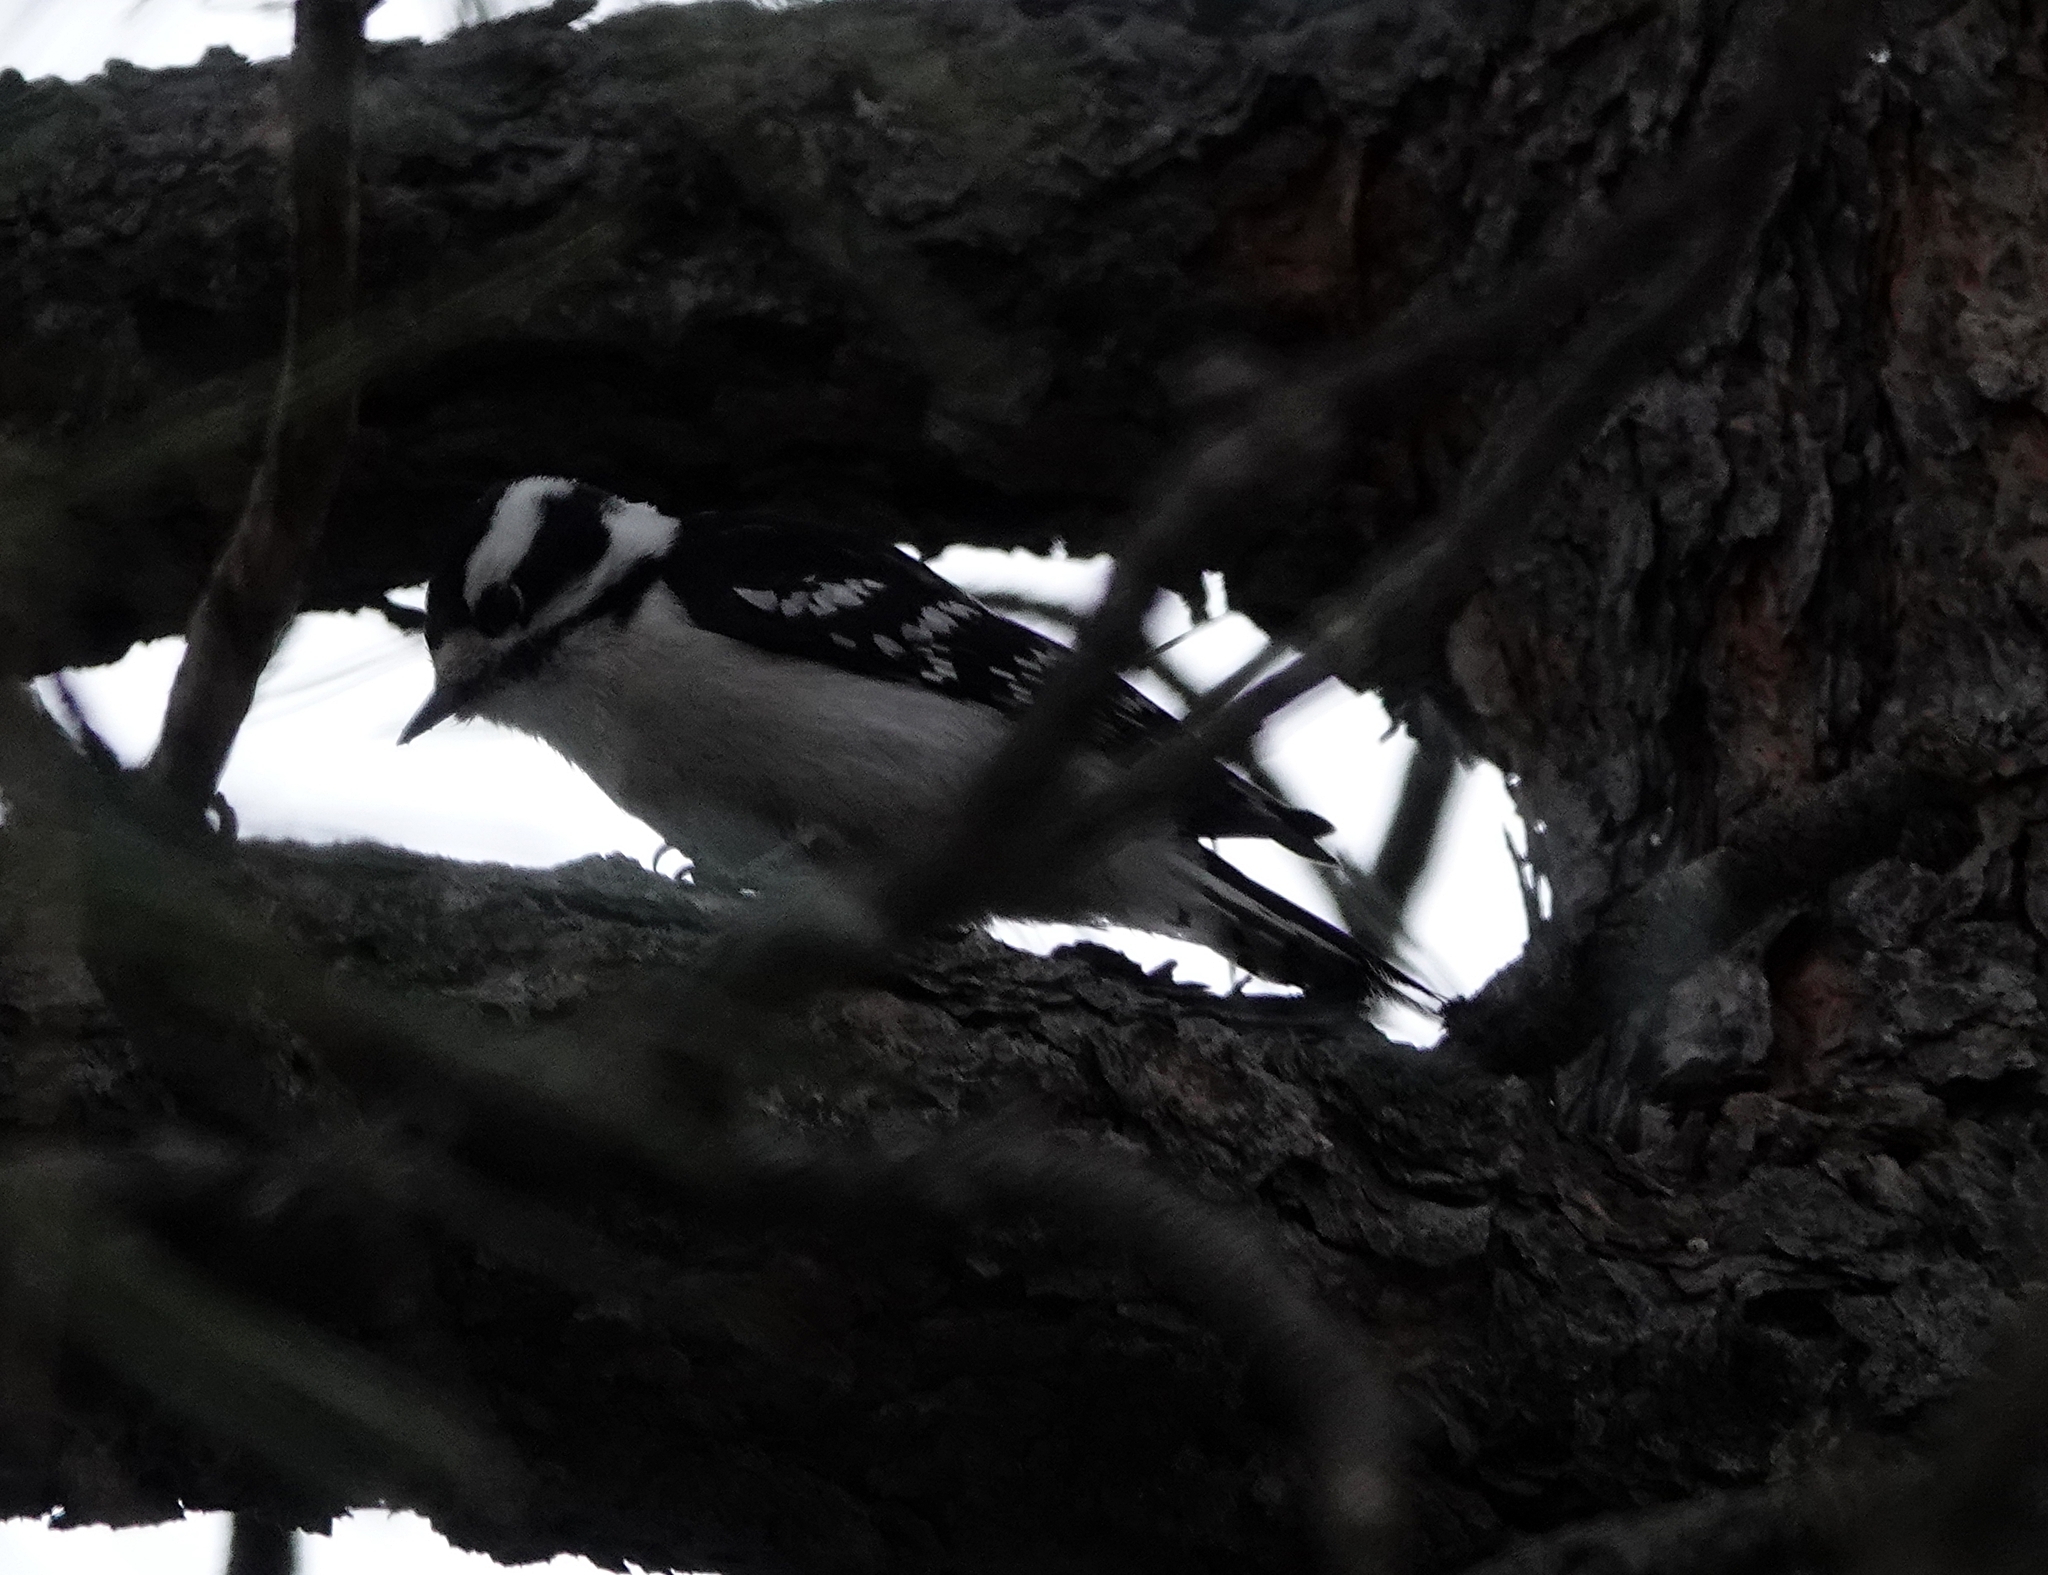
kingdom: Animalia
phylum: Chordata
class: Aves
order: Piciformes
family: Picidae
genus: Dryobates
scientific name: Dryobates pubescens
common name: Downy woodpecker
